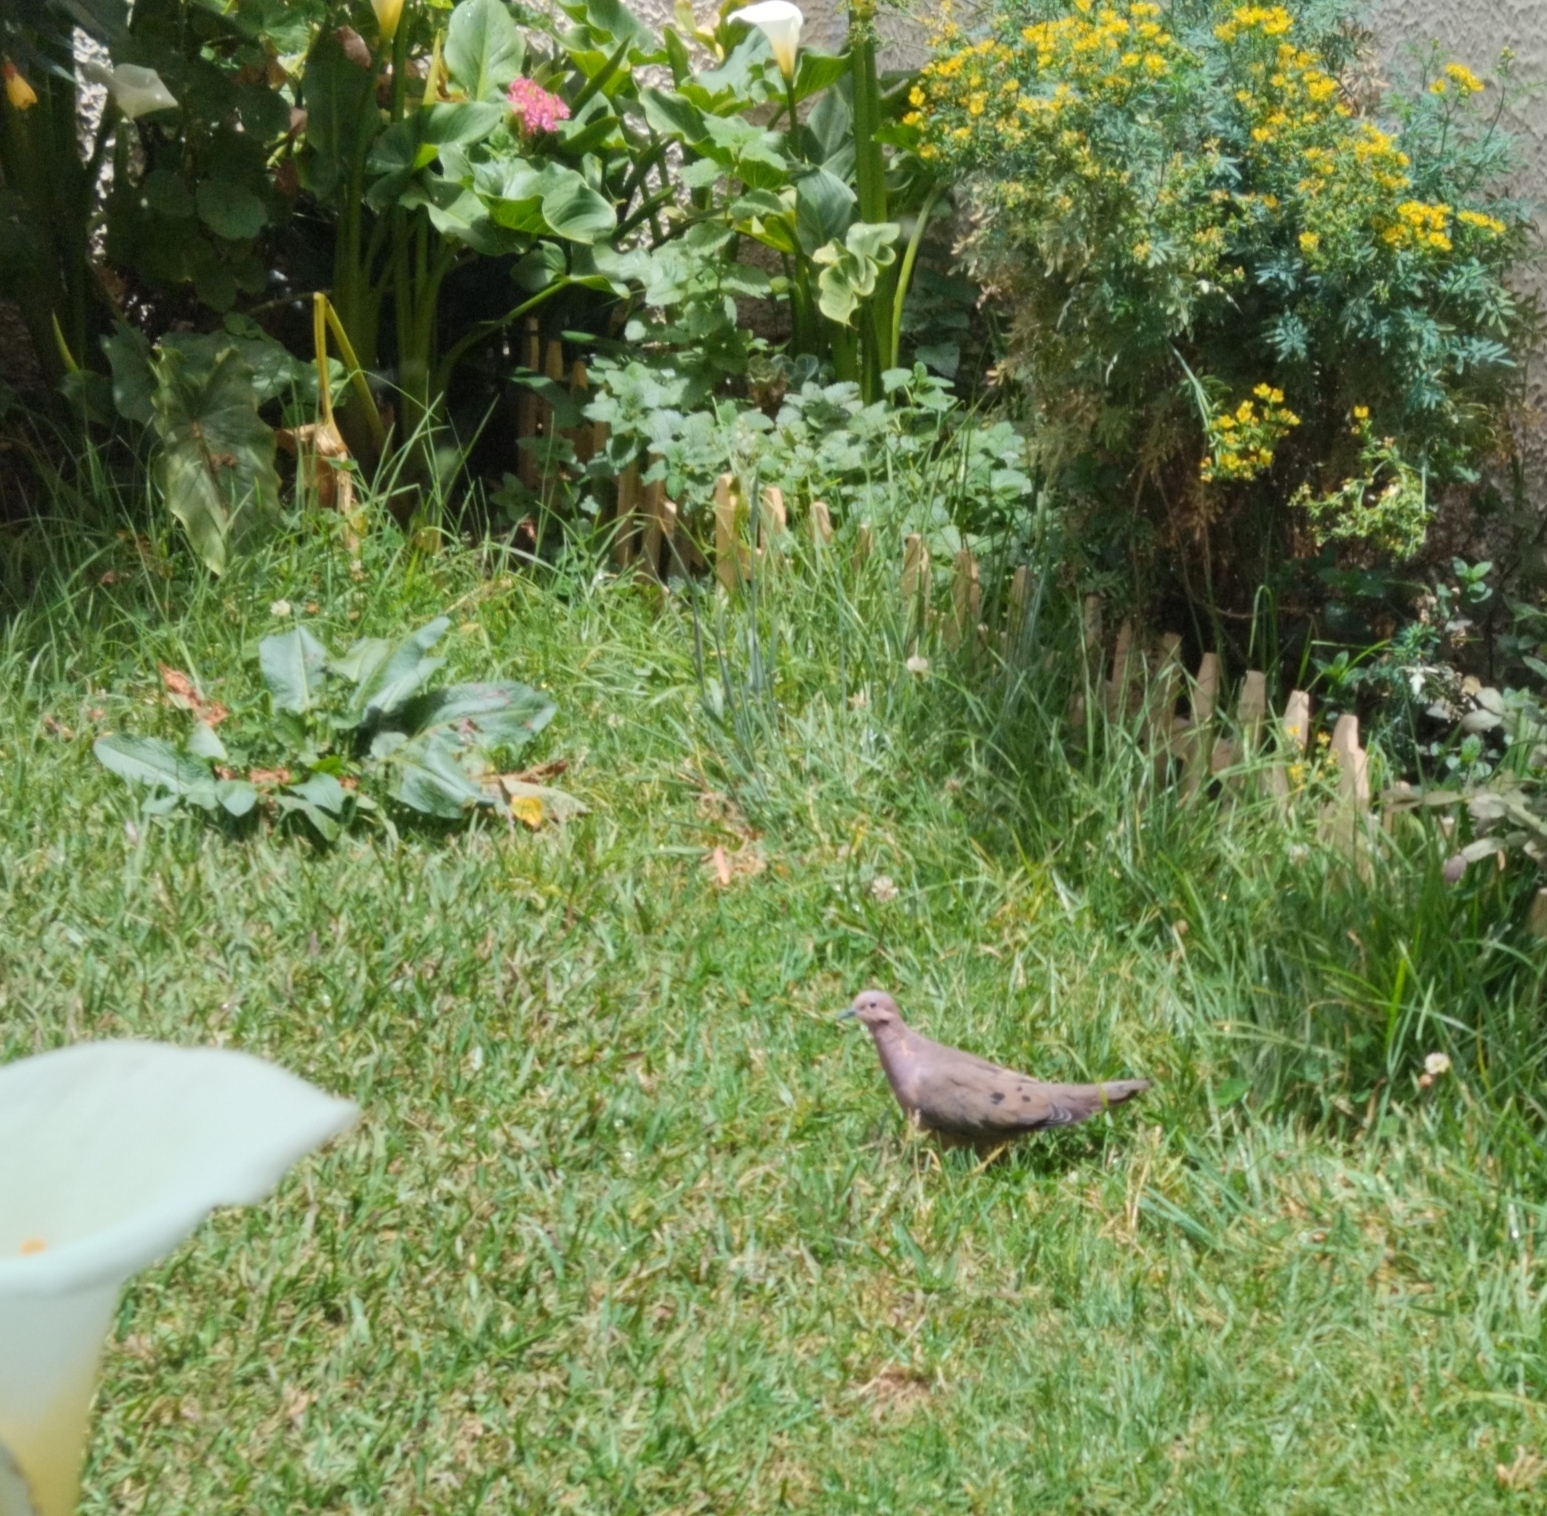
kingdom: Animalia
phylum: Chordata
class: Aves
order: Columbiformes
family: Columbidae
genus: Zenaida
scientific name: Zenaida auriculata
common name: Eared dove
